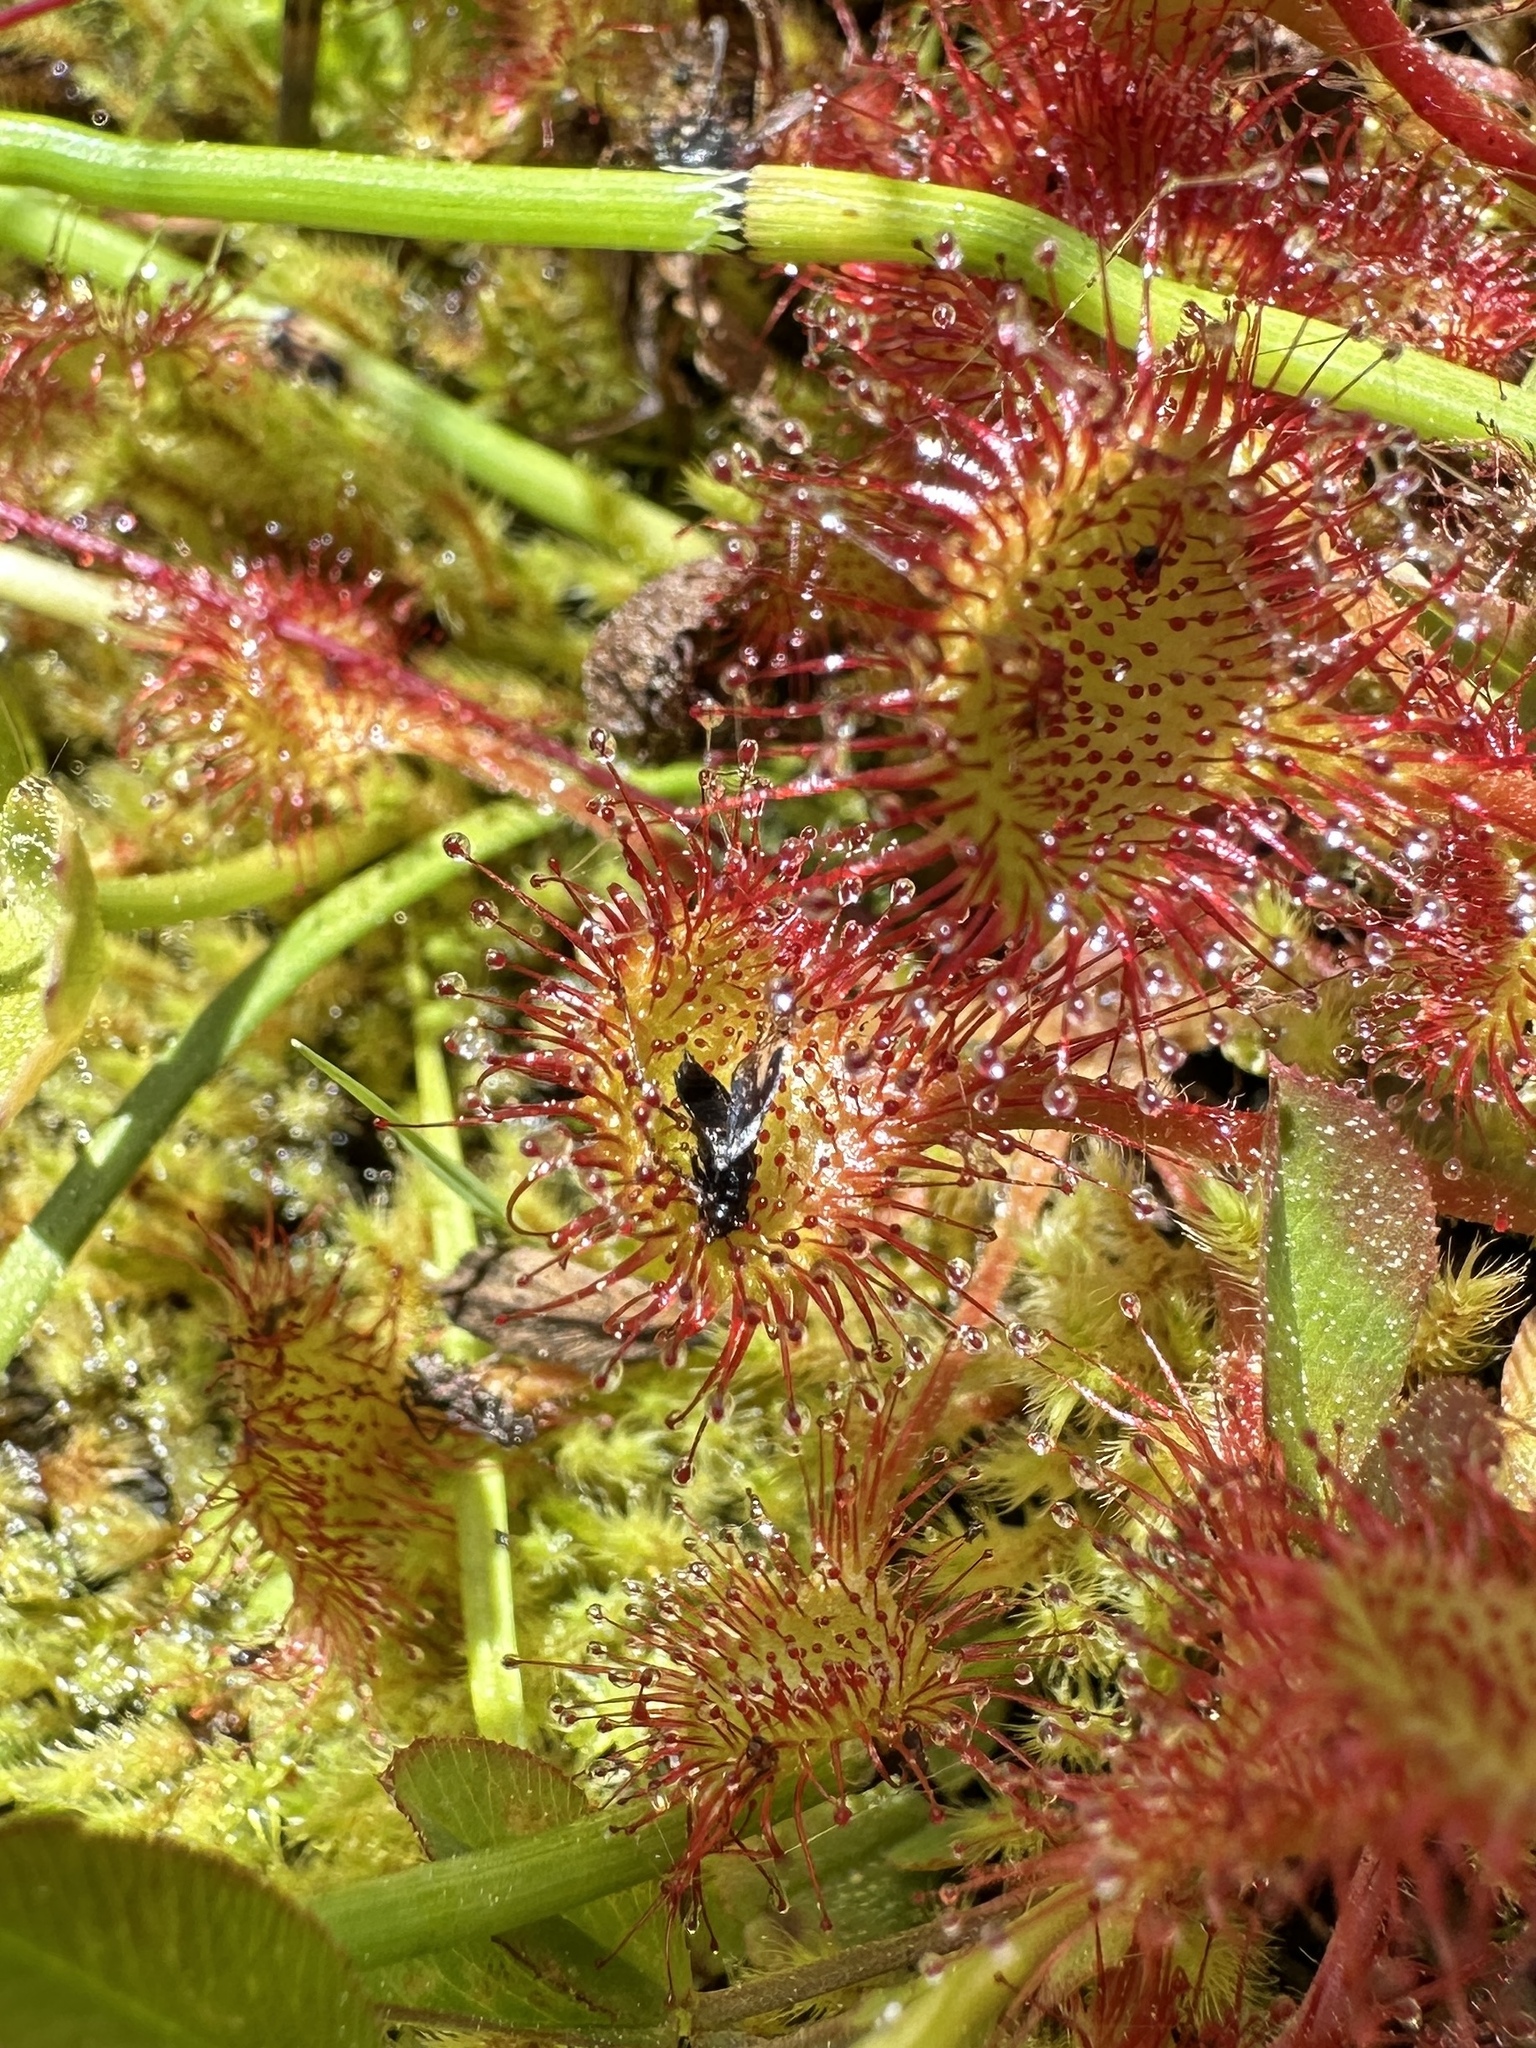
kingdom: Plantae
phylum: Tracheophyta
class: Magnoliopsida
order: Caryophyllales
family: Droseraceae
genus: Drosera
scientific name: Drosera rotundifolia
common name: Round-leaved sundew
